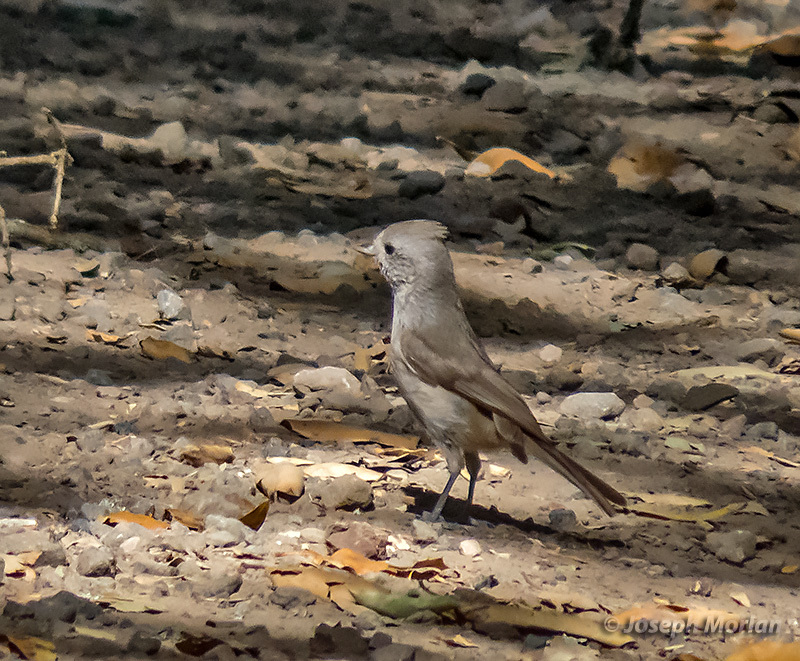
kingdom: Animalia
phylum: Chordata
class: Aves
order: Passeriformes
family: Paridae
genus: Baeolophus
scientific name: Baeolophus inornatus
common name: Oak titmouse
